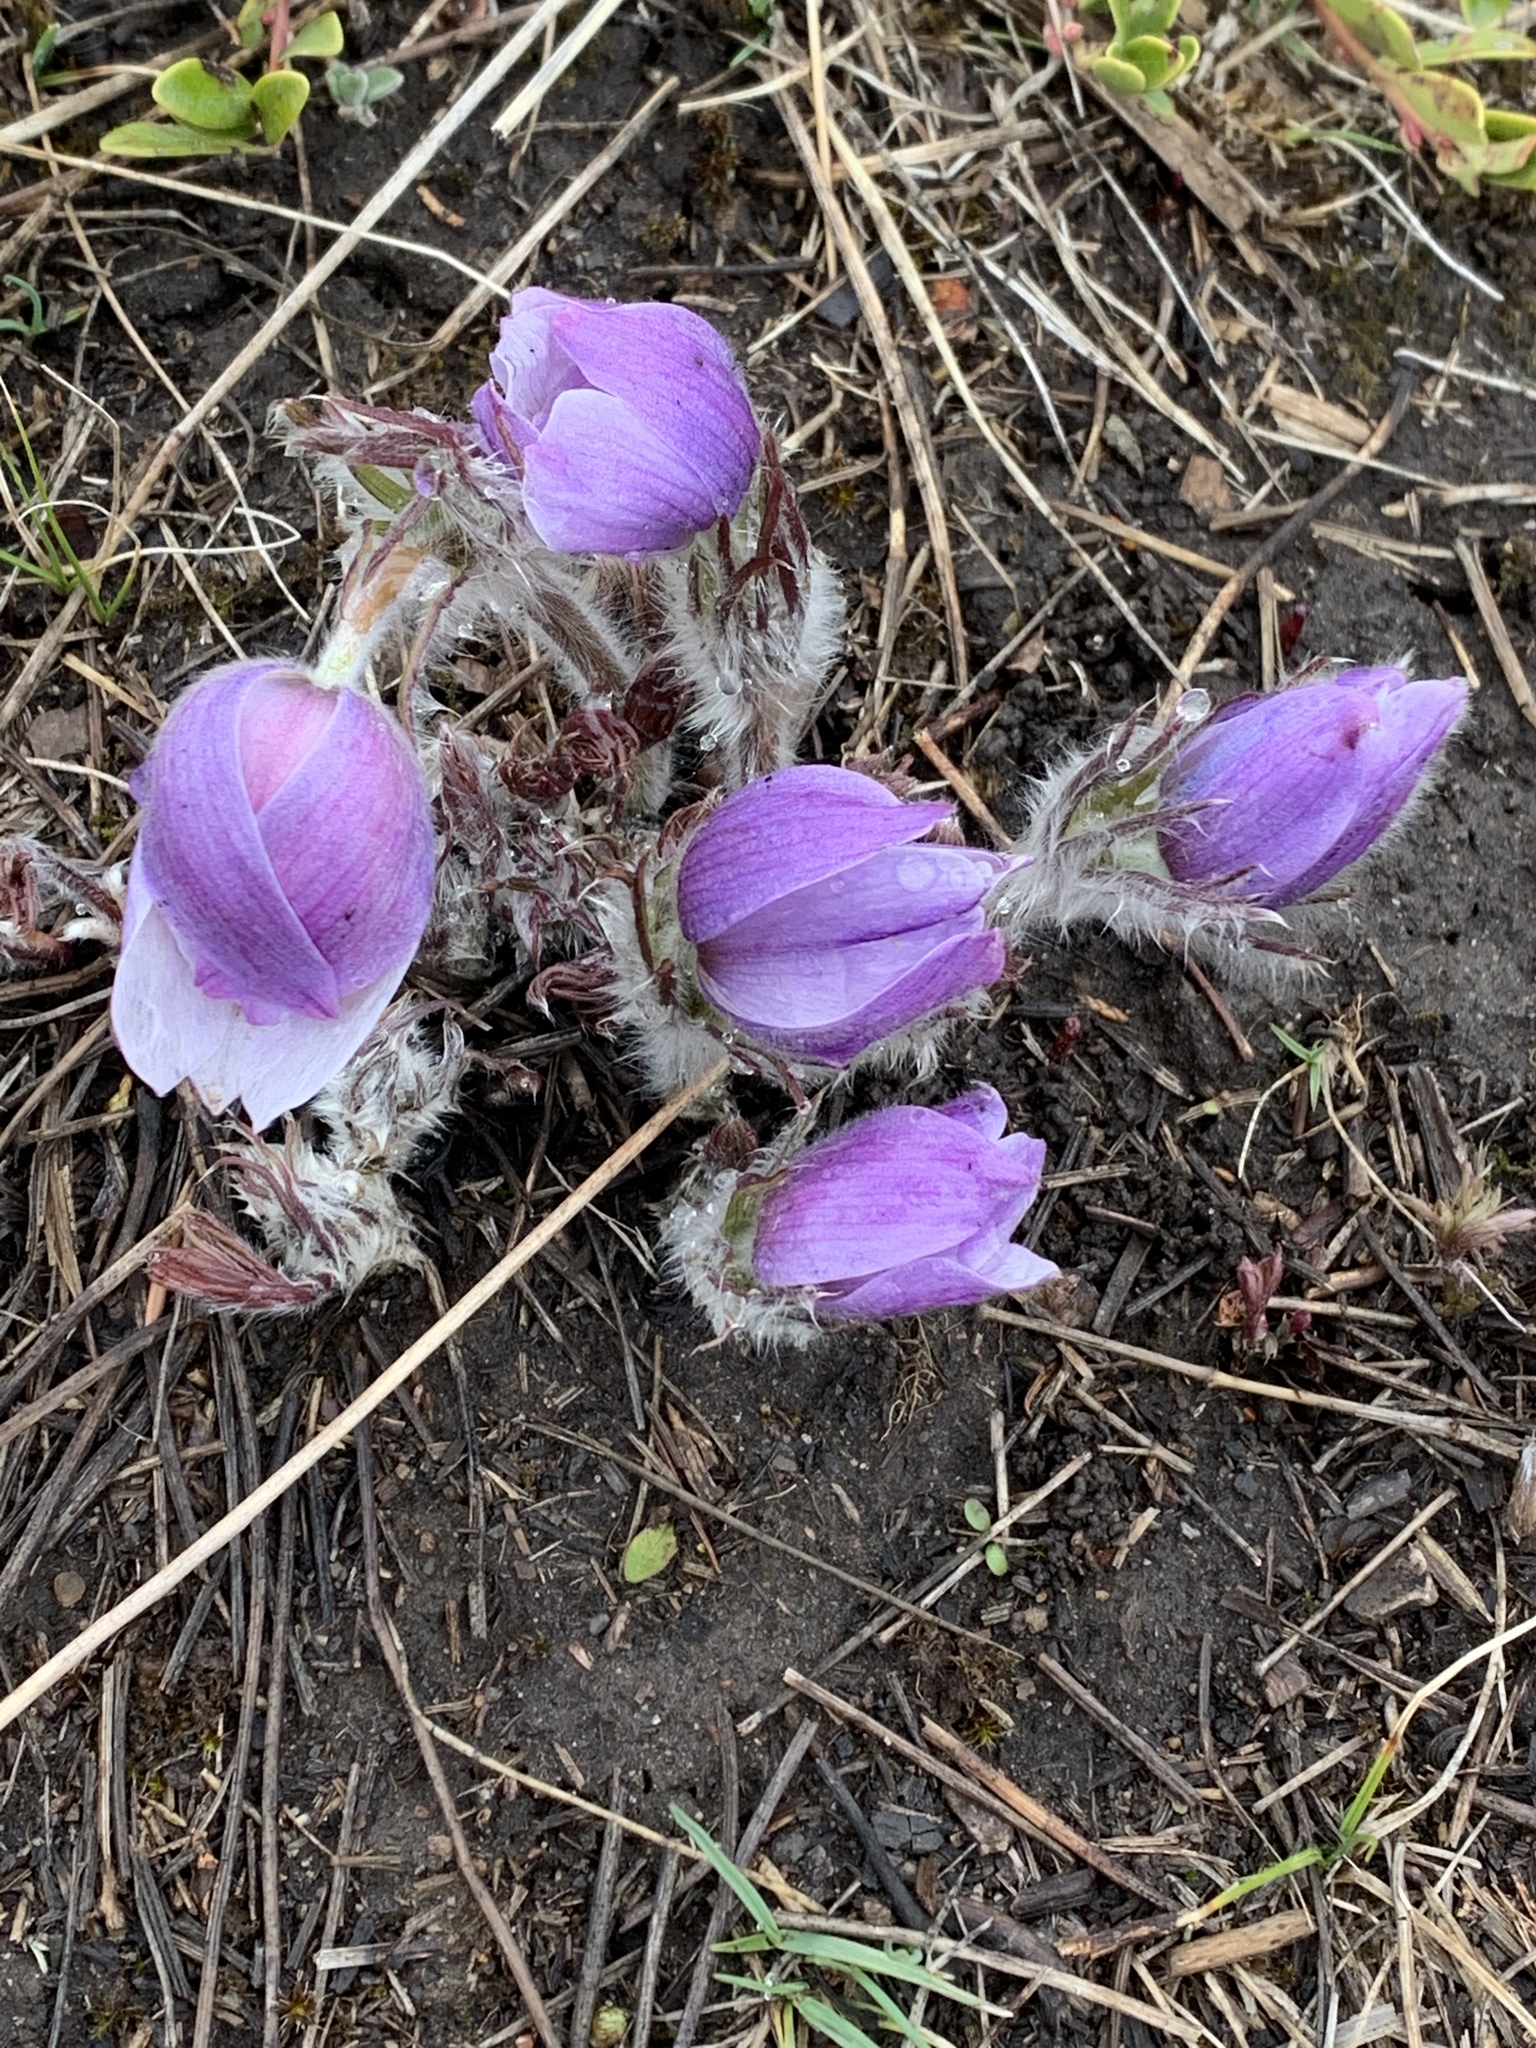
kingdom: Plantae
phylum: Tracheophyta
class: Magnoliopsida
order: Ranunculales
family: Ranunculaceae
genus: Pulsatilla
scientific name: Pulsatilla nuttalliana
